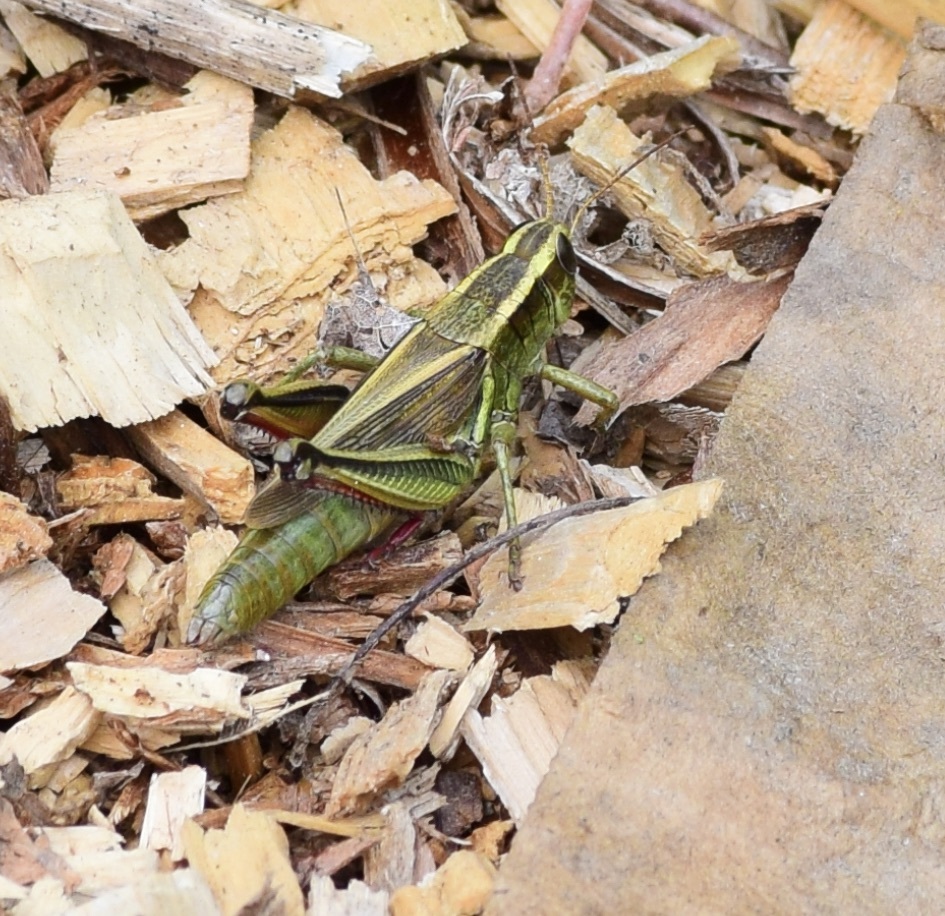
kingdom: Animalia
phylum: Arthropoda
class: Insecta
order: Orthoptera
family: Acrididae
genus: Melanoplus
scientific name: Melanoplus bivittatus
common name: Two-striped grasshopper
